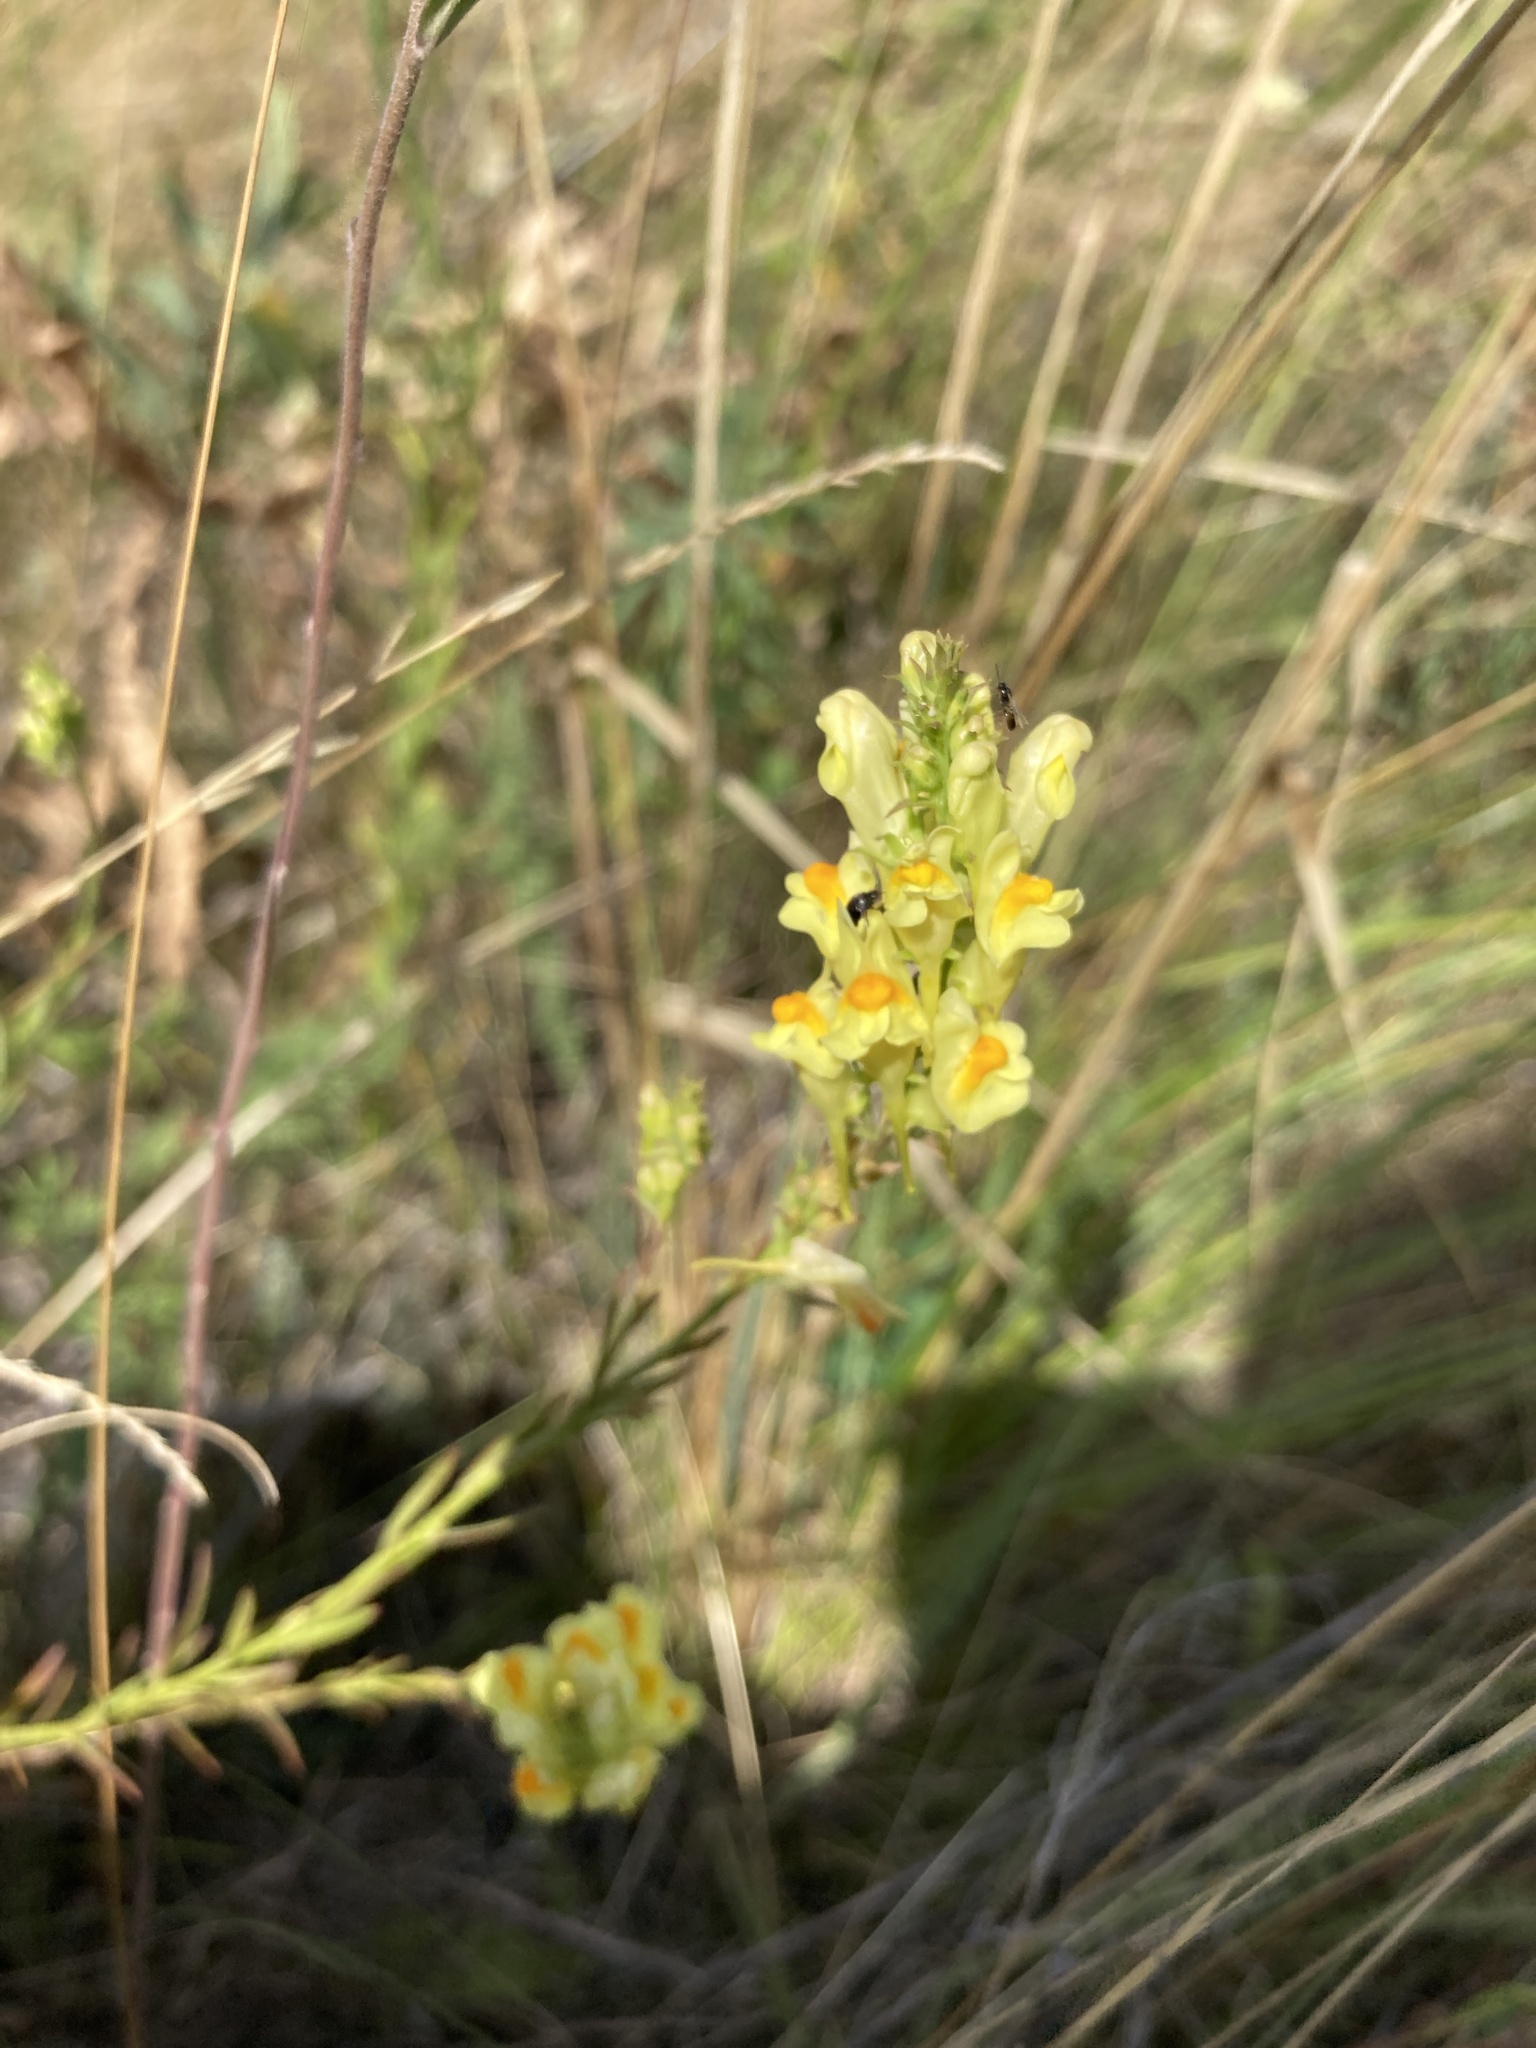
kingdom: Plantae
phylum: Tracheophyta
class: Magnoliopsida
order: Lamiales
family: Plantaginaceae
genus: Linaria
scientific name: Linaria vulgaris
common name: Butter and eggs
